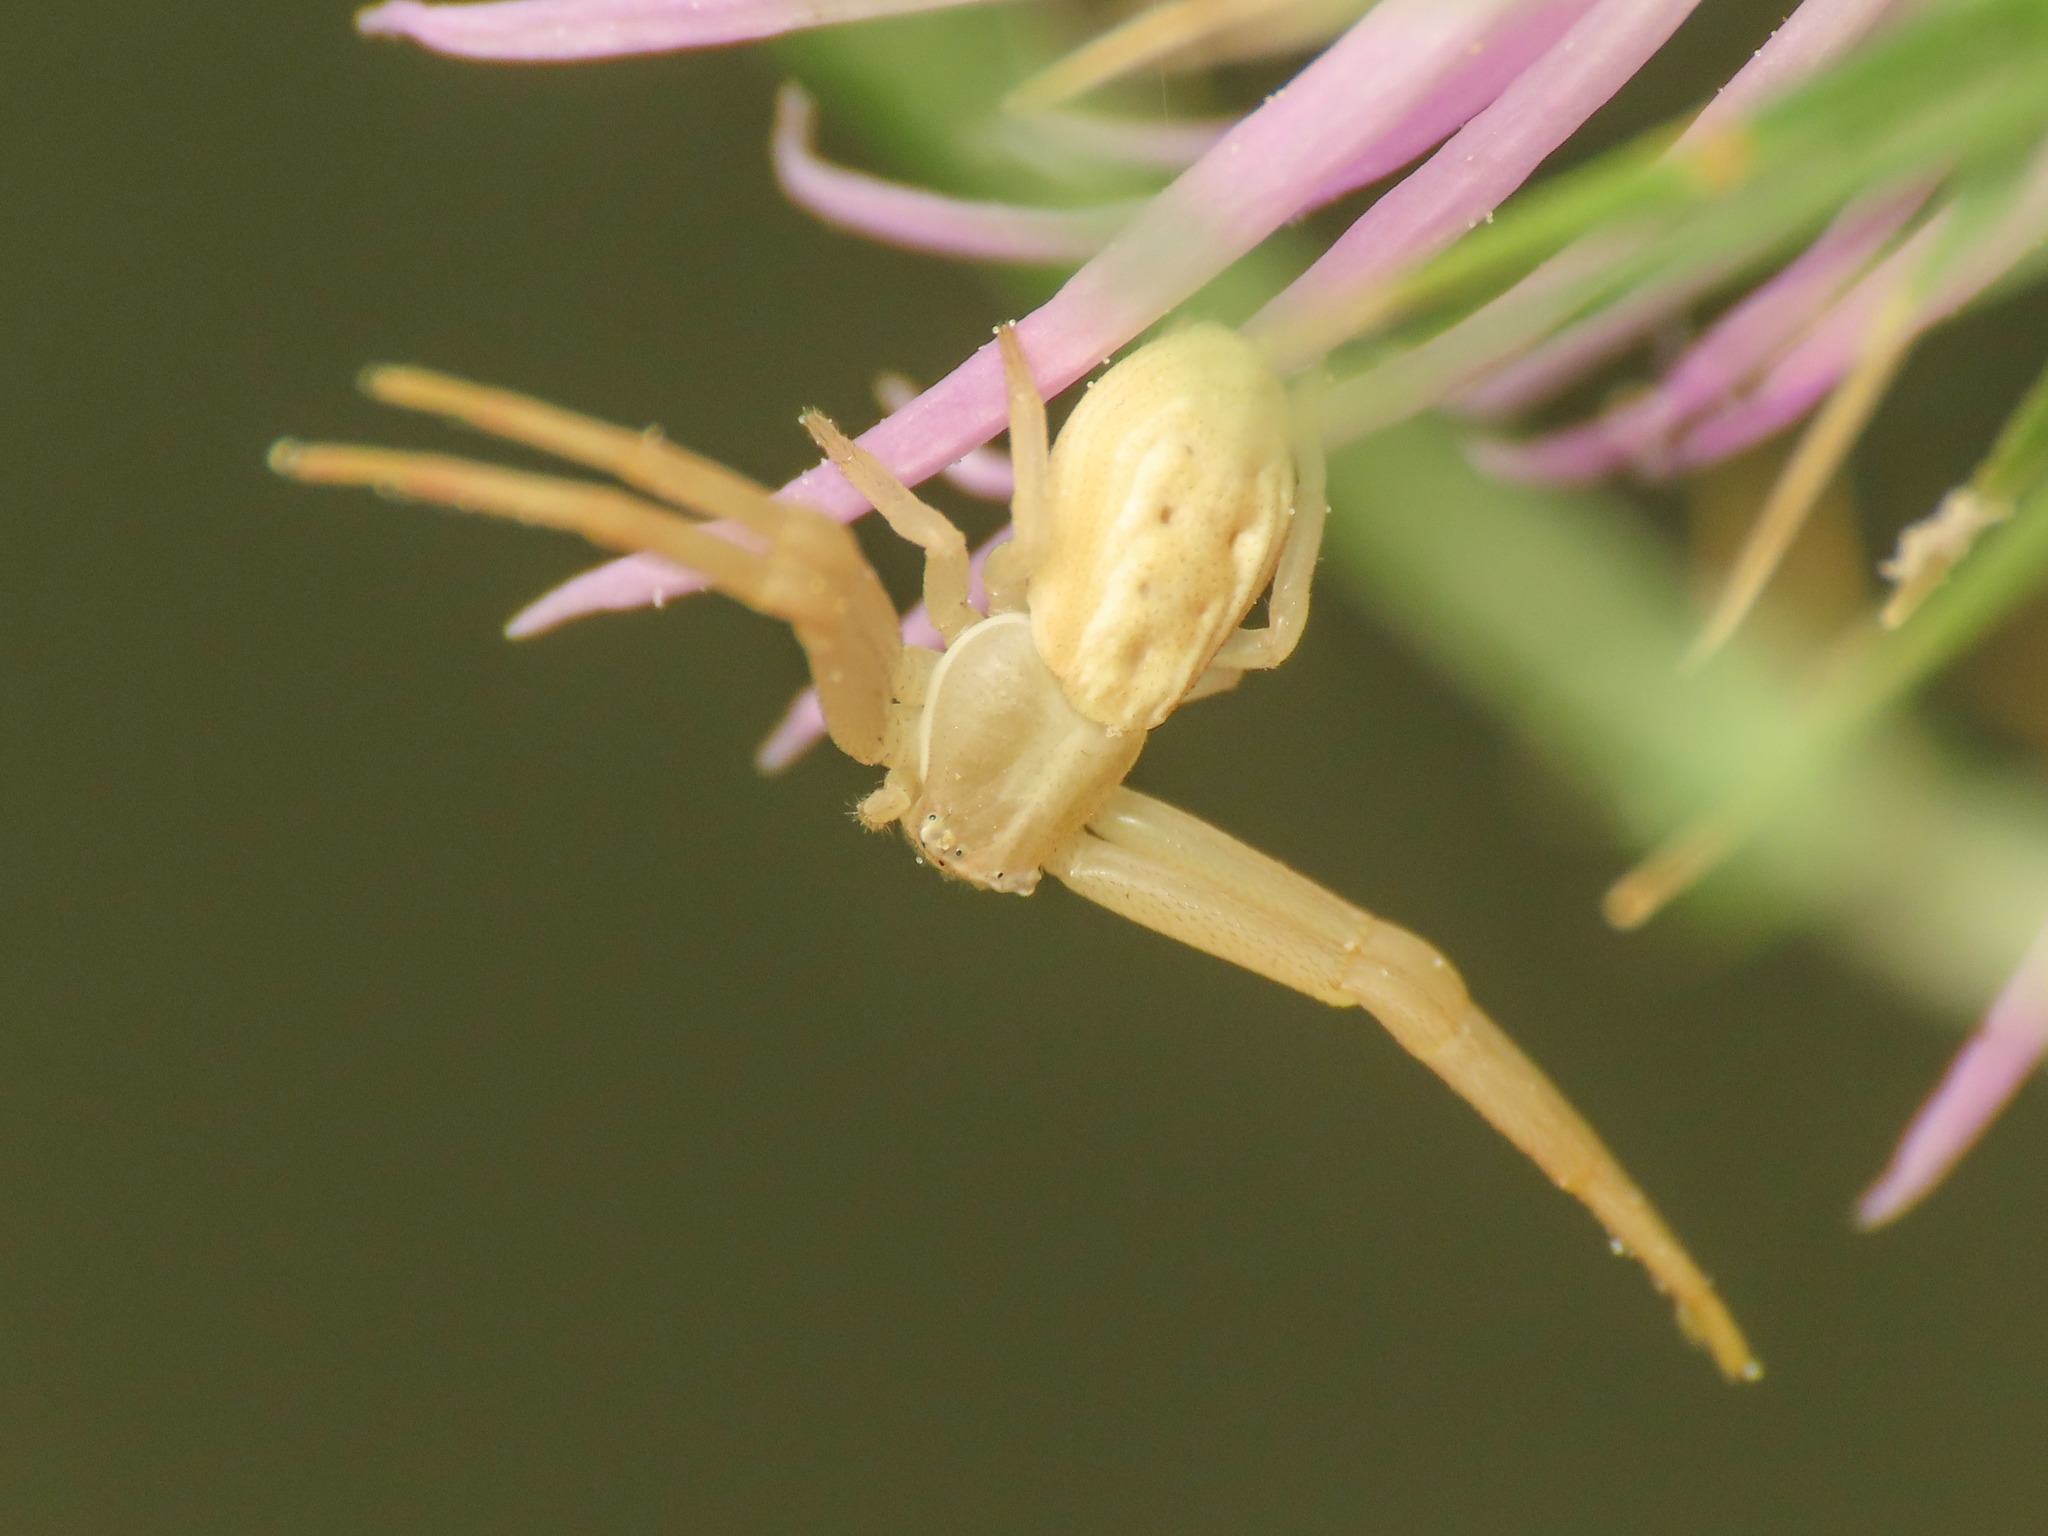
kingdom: Animalia
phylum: Arthropoda
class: Arachnida
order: Araneae
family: Thomisidae
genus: Runcinia
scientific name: Runcinia grammica
